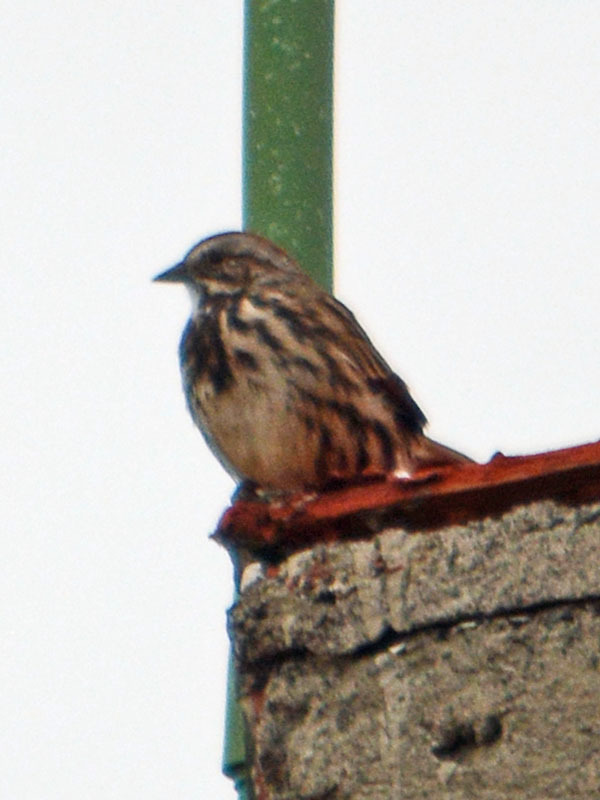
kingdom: Animalia
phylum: Chordata
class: Aves
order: Passeriformes
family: Passerellidae
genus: Melospiza
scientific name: Melospiza melodia
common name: Song sparrow
